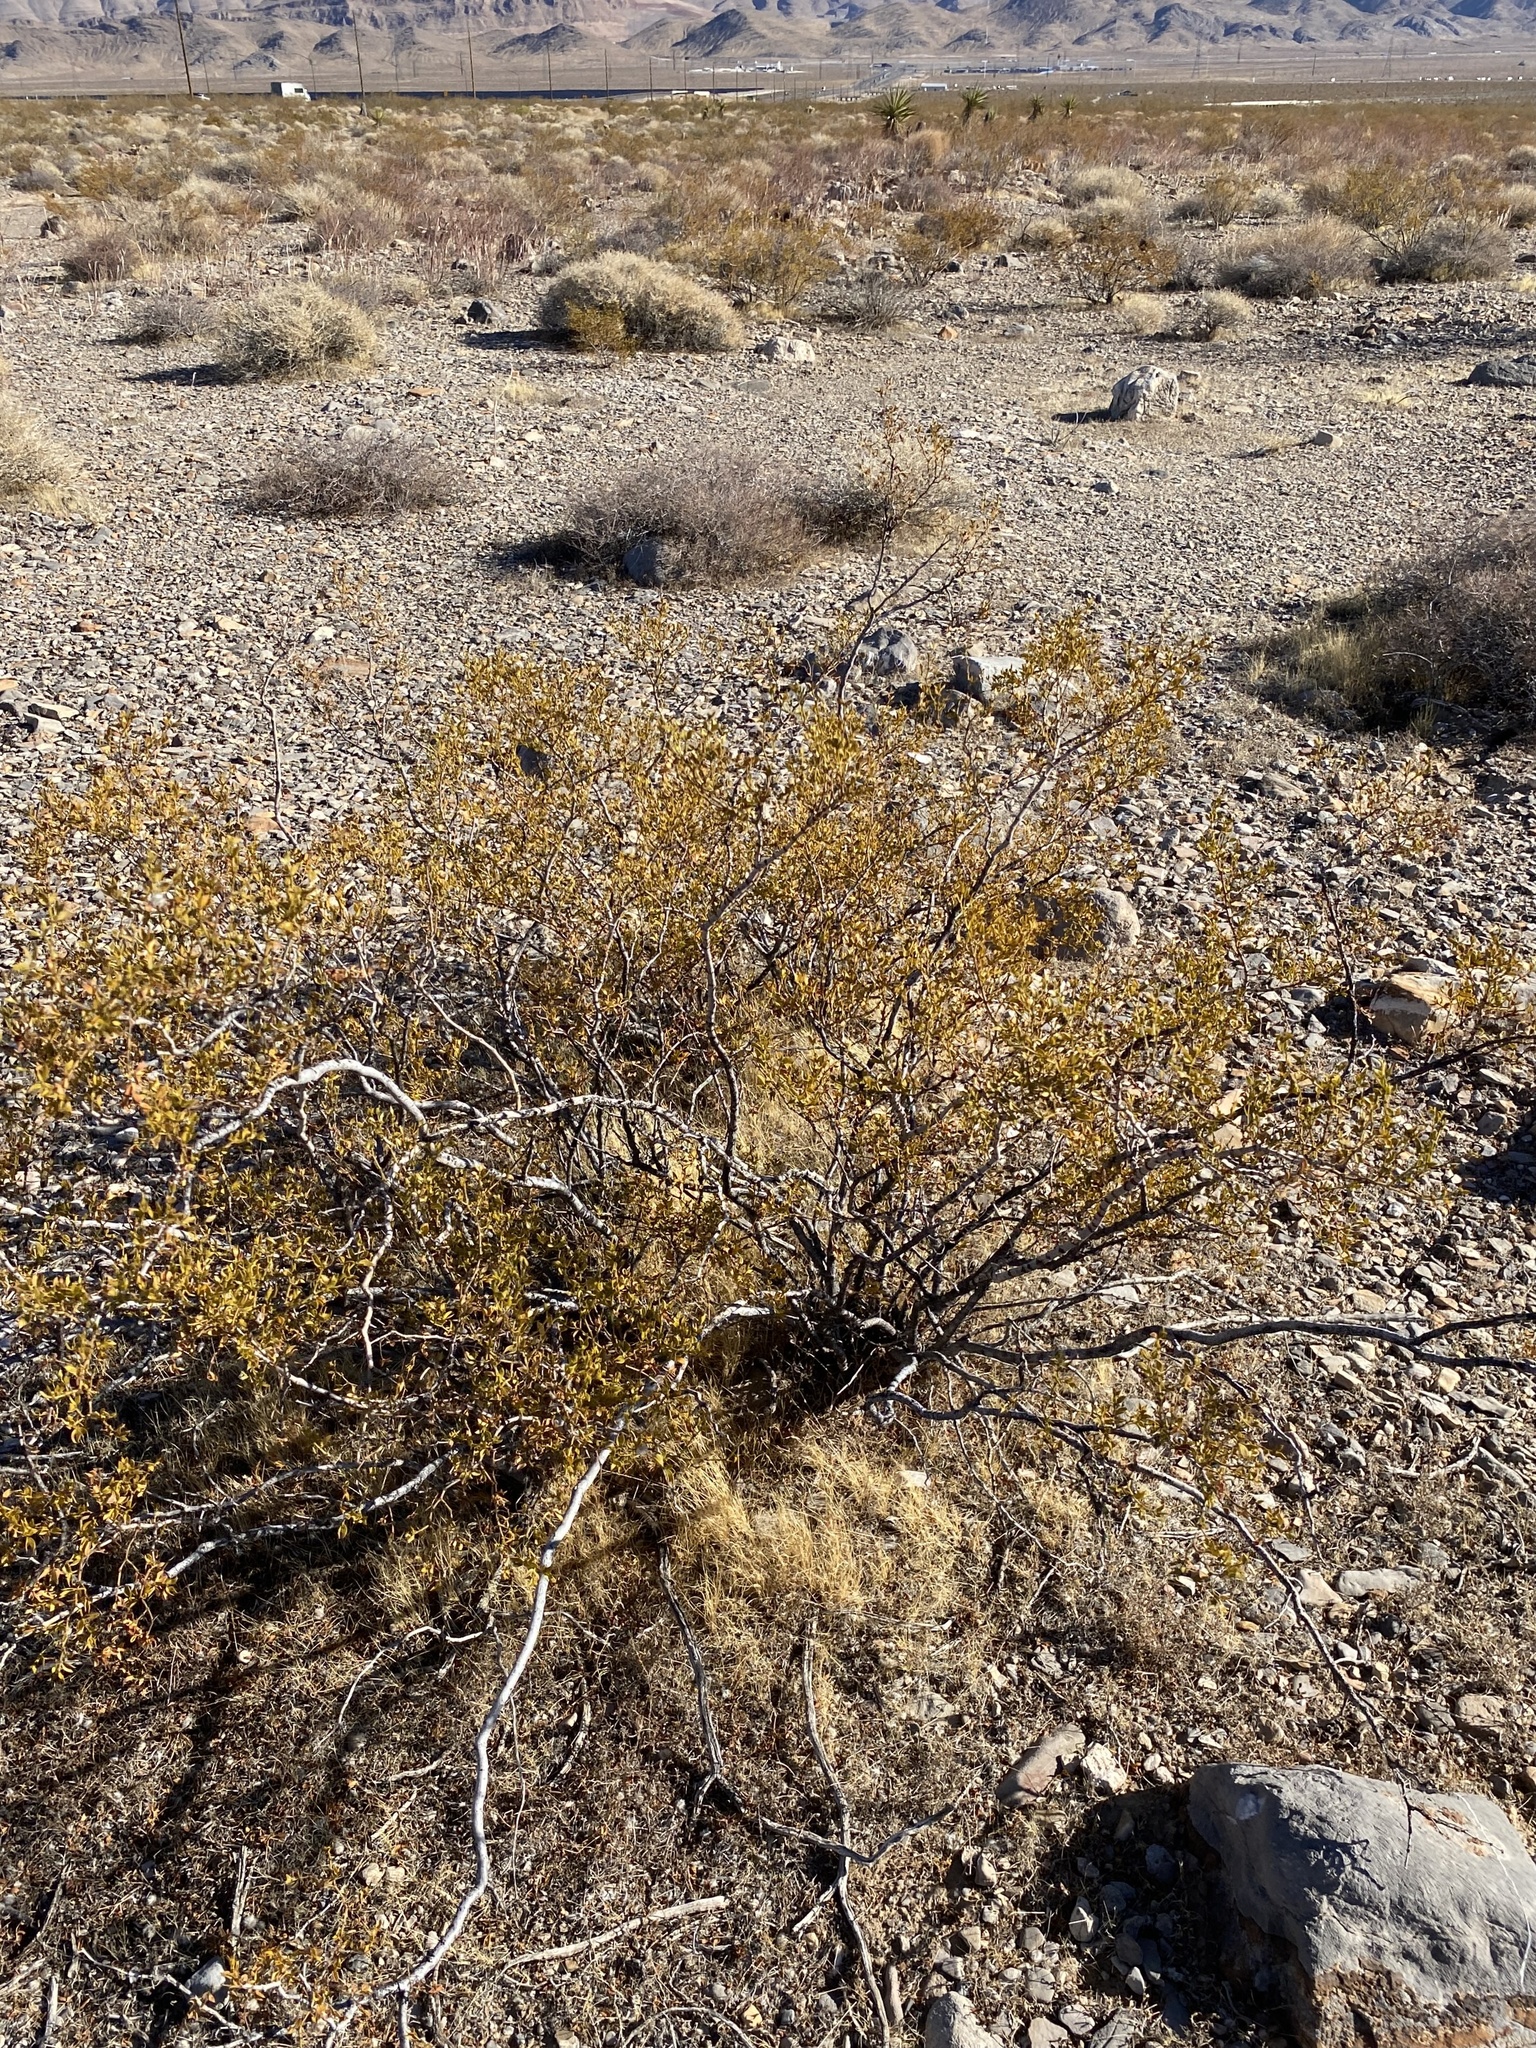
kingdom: Plantae
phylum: Tracheophyta
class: Magnoliopsida
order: Zygophyllales
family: Zygophyllaceae
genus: Larrea
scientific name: Larrea tridentata
